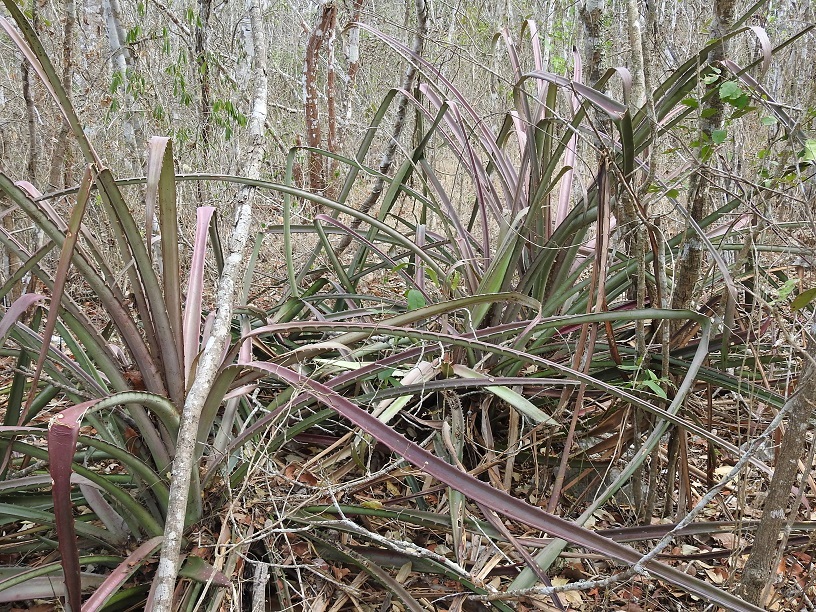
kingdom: Plantae
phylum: Tracheophyta
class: Liliopsida
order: Poales
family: Bromeliaceae
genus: Bromelia
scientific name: Bromelia karatas
